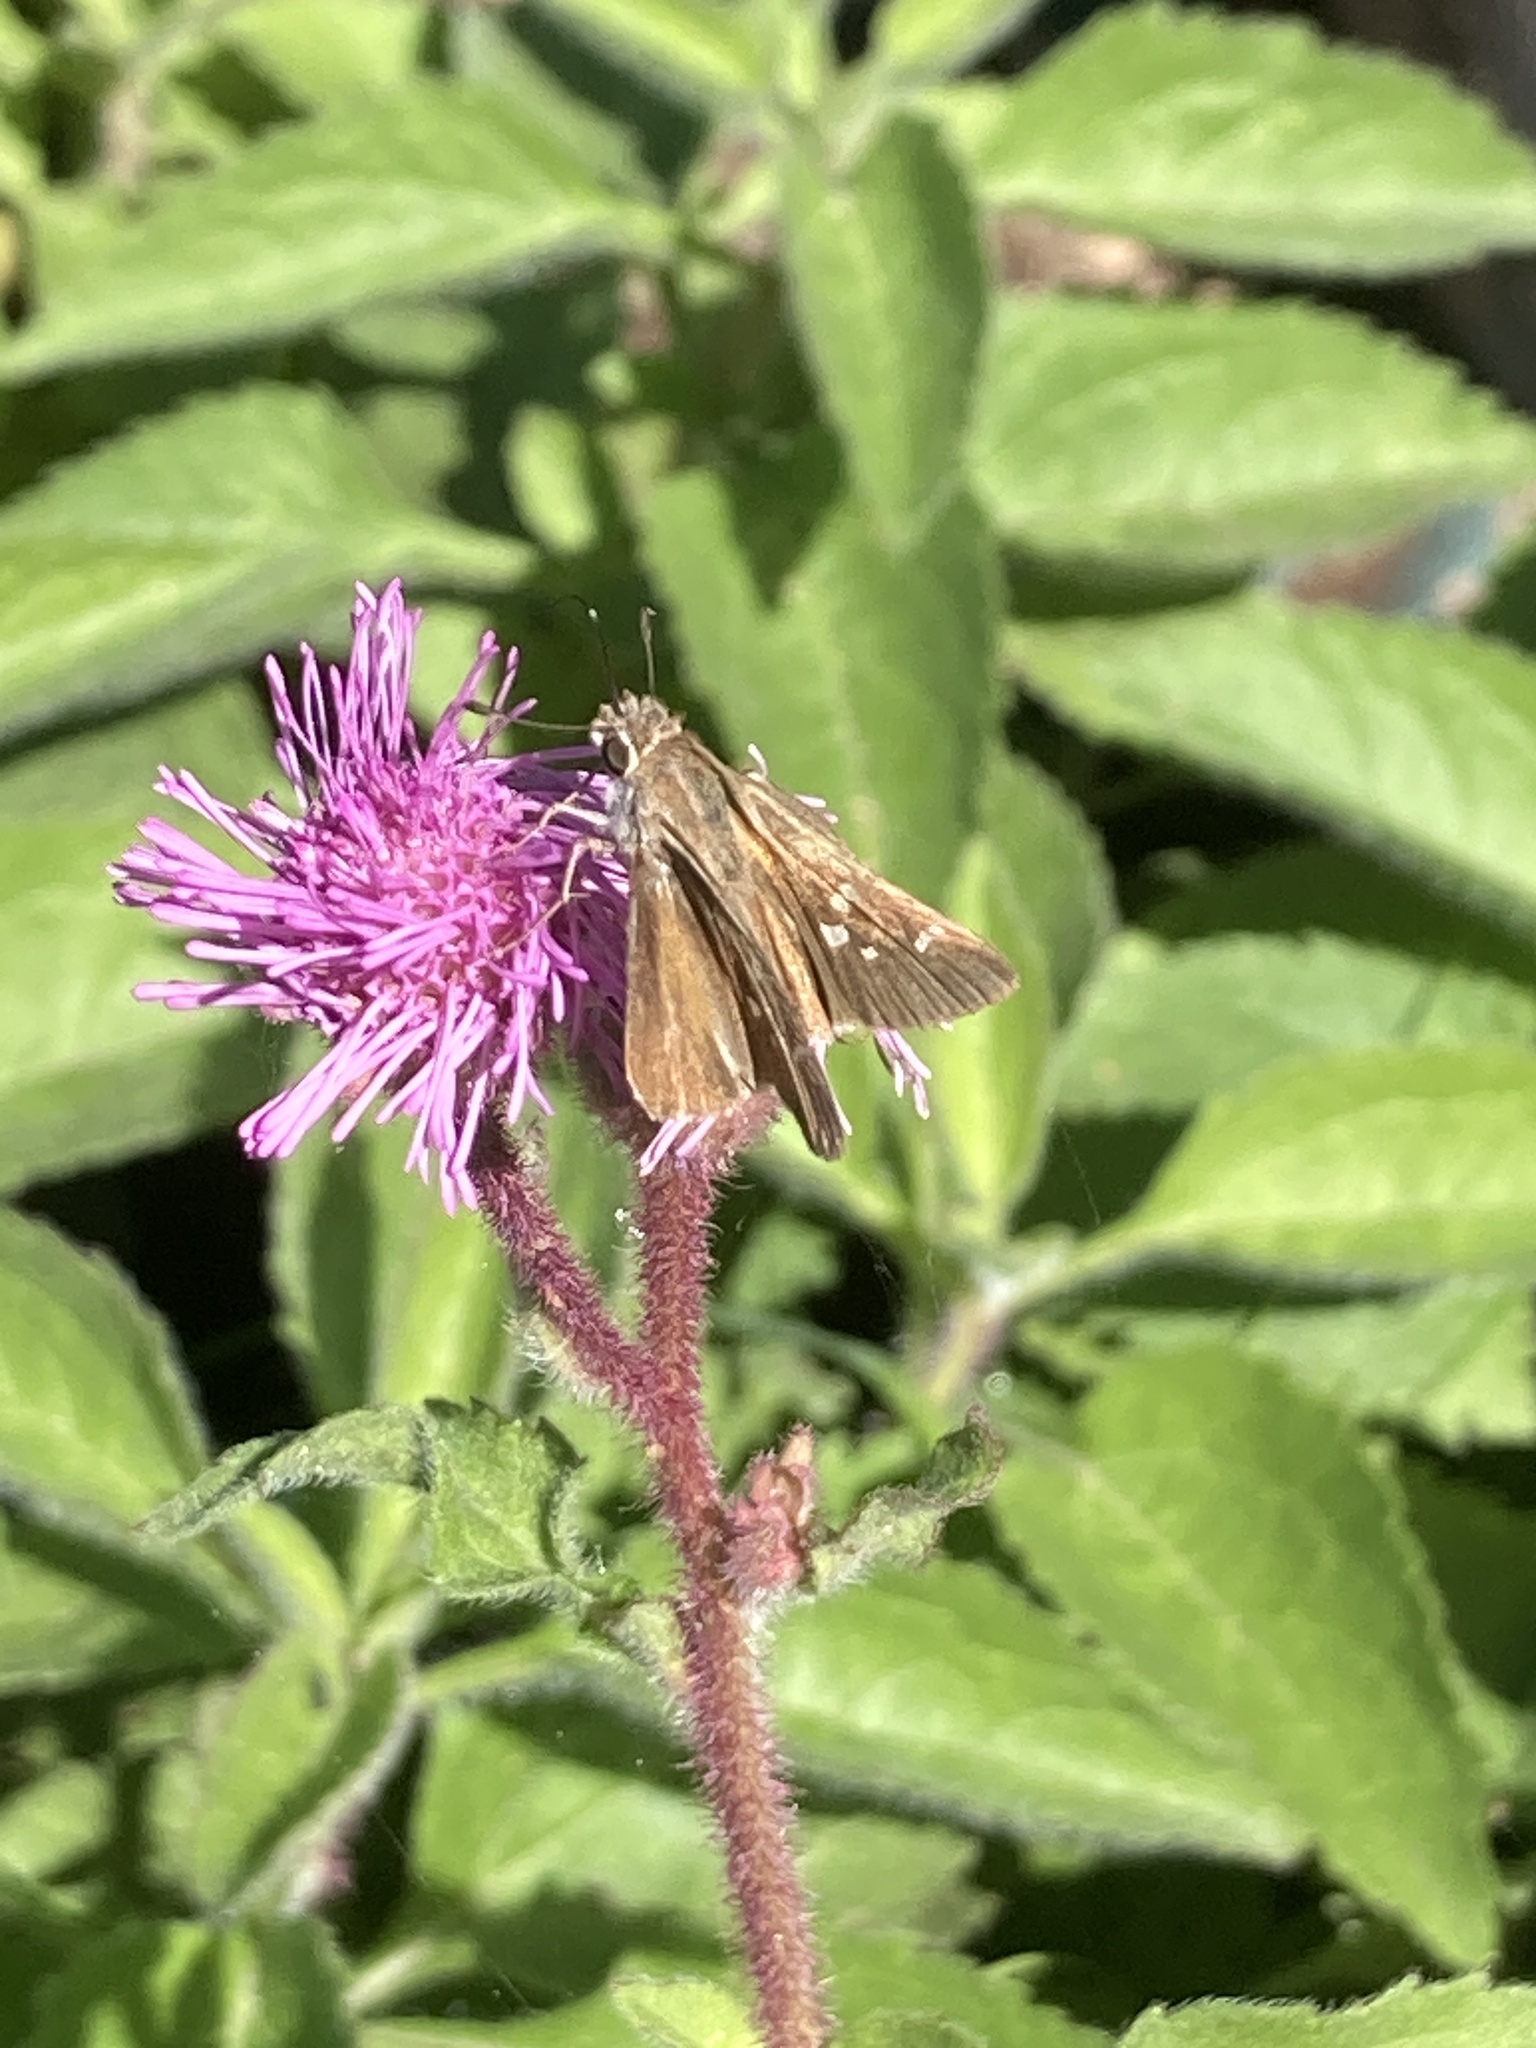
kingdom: Animalia
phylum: Arthropoda
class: Insecta
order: Lepidoptera
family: Hesperiidae
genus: Lerodea
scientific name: Lerodea eufala
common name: Eufala skipper
